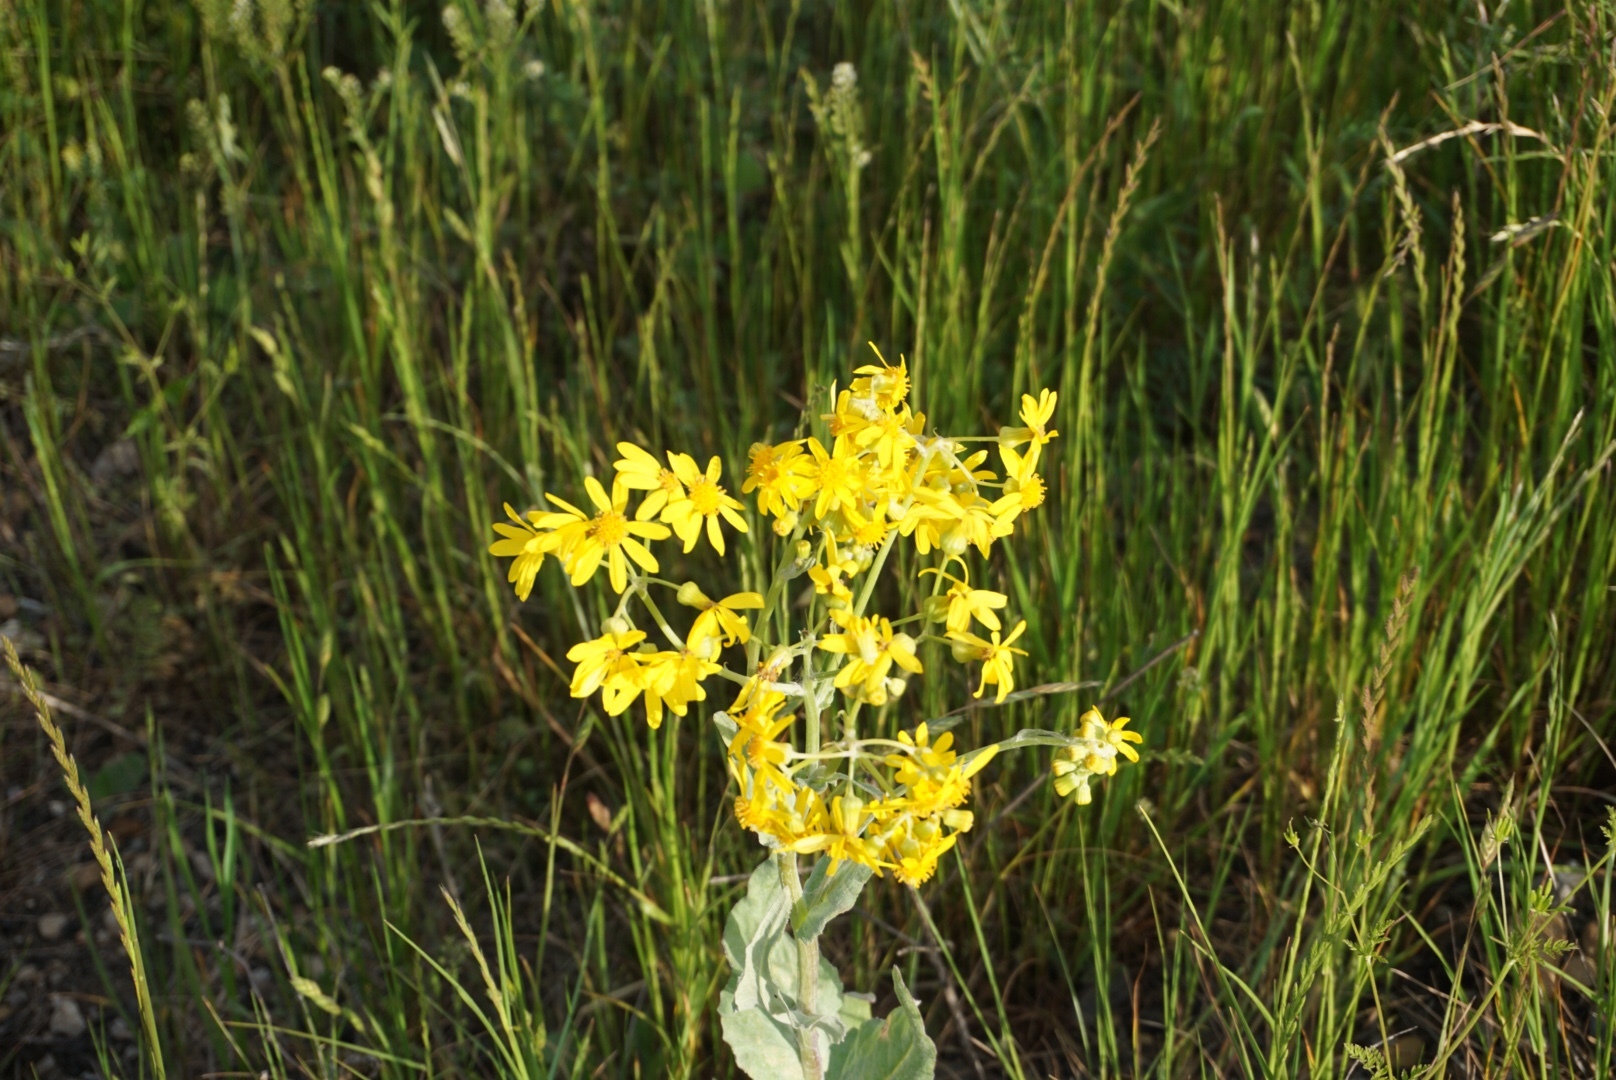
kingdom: Plantae
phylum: Tracheophyta
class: Magnoliopsida
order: Asterales
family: Asteraceae
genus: Senecio
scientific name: Senecio ampullaceus
